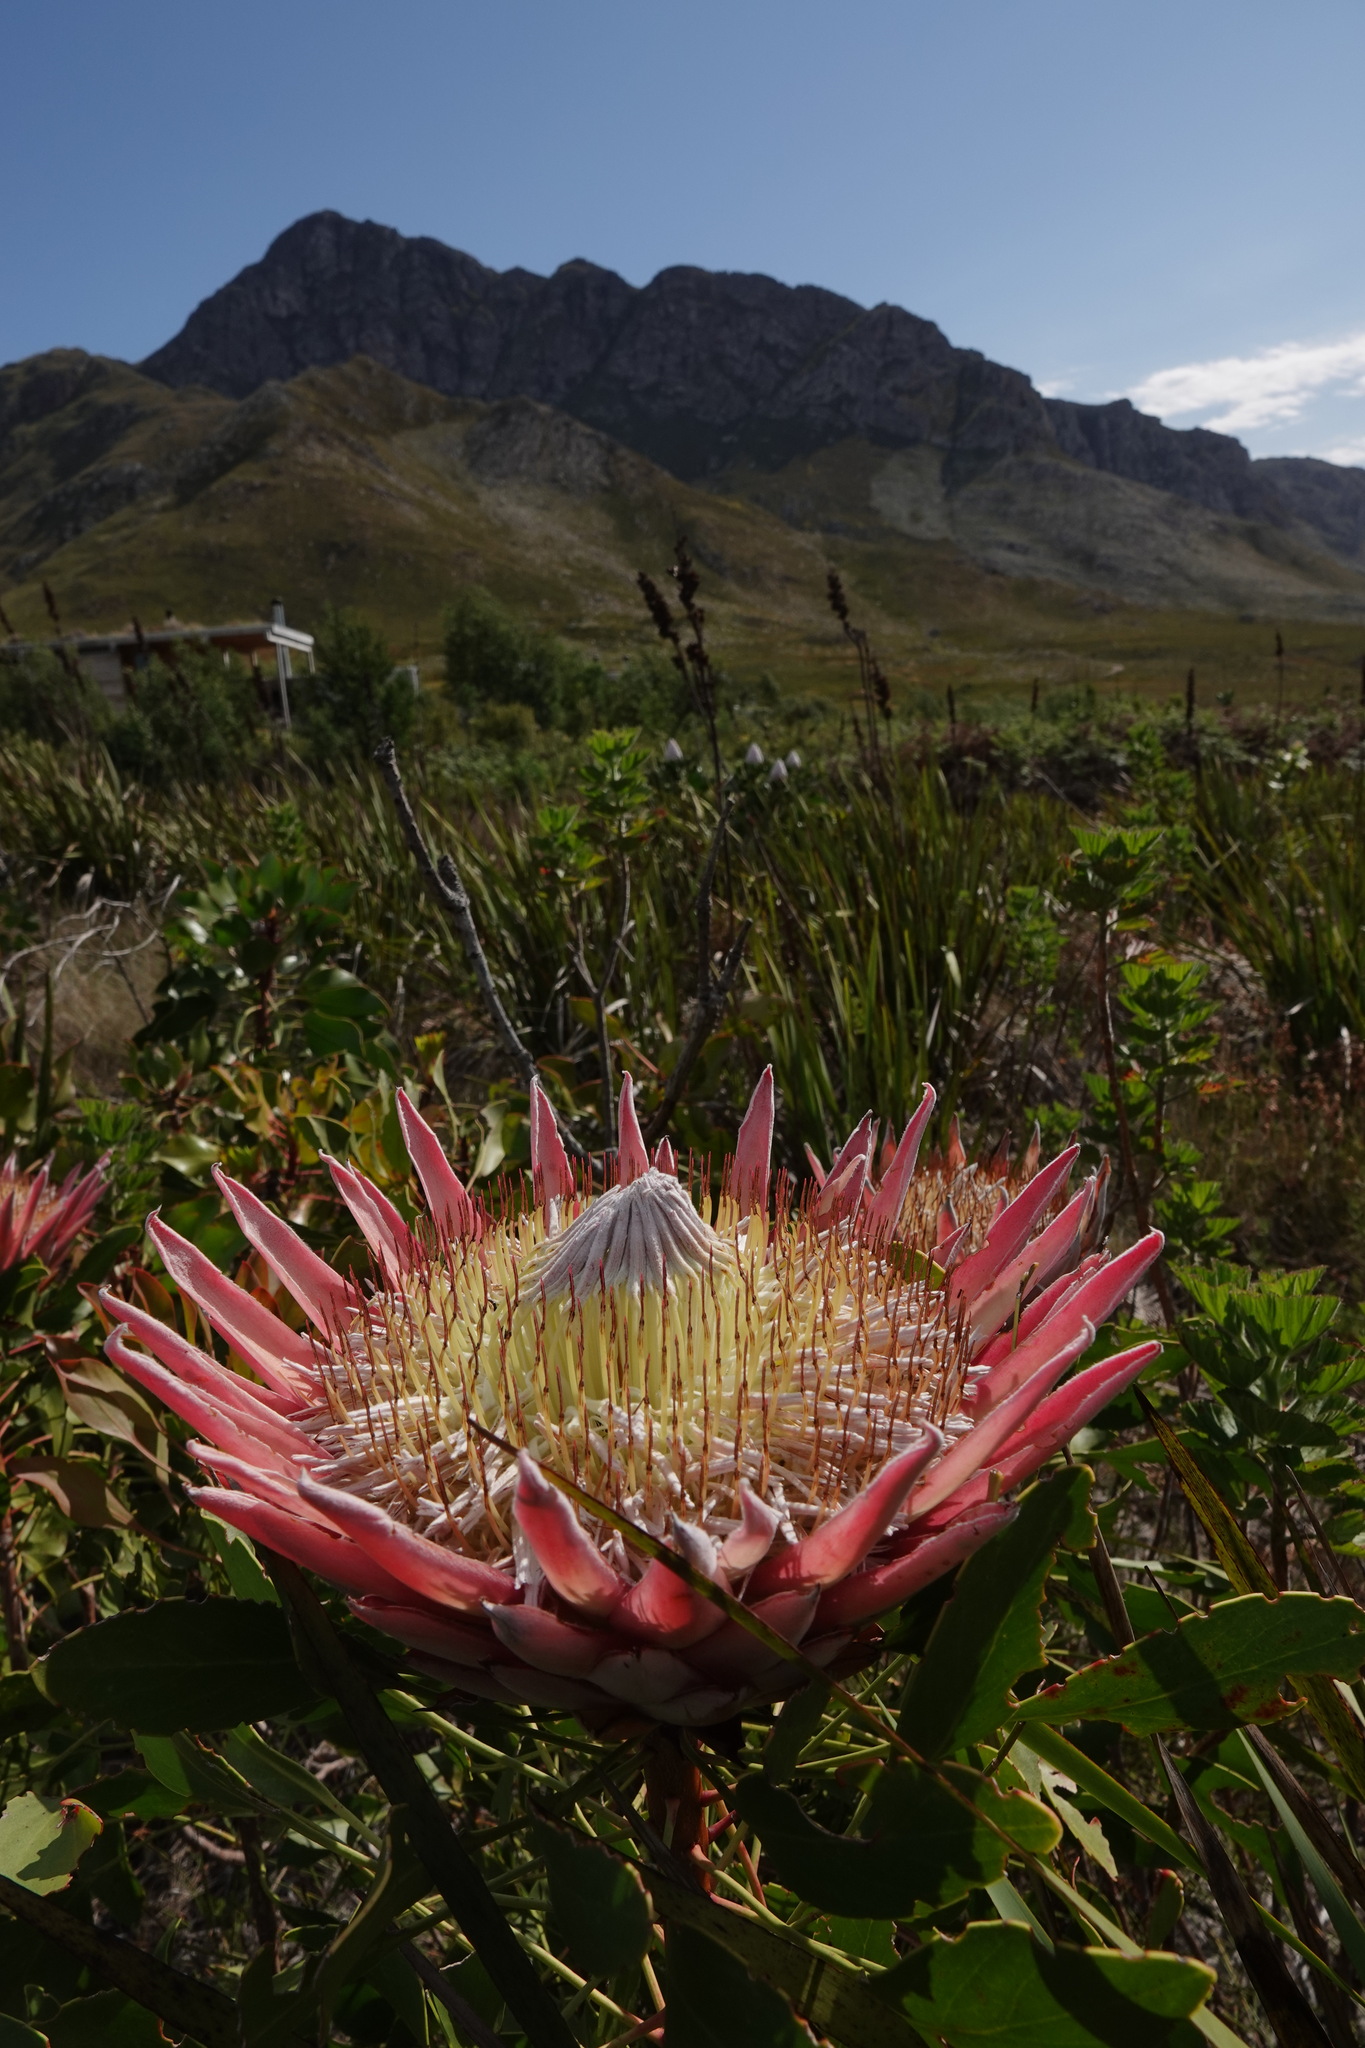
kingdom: Plantae
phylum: Tracheophyta
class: Magnoliopsida
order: Proteales
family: Proteaceae
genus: Protea
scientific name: Protea cynaroides
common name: King protea
